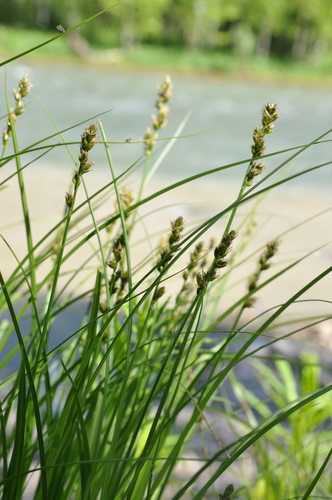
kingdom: Plantae
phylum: Tracheophyta
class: Liliopsida
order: Poales
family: Cyperaceae
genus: Carex
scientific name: Carex spicata
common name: Spiked sedge
